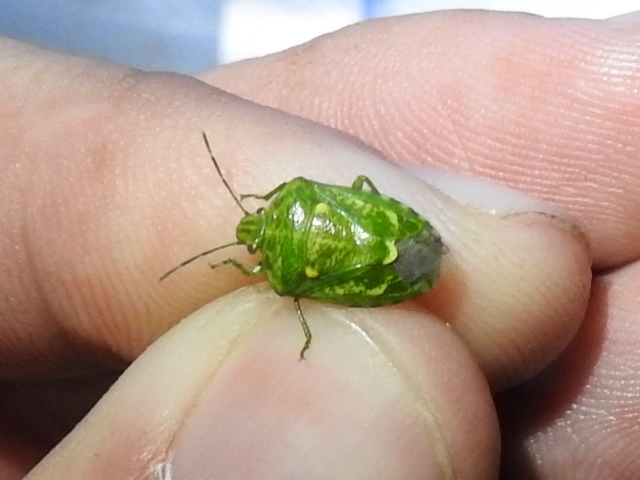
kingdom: Animalia
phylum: Arthropoda
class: Insecta
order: Hemiptera
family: Pentatomidae
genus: Banasa
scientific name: Banasa euchlora
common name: Cedar berry bug
